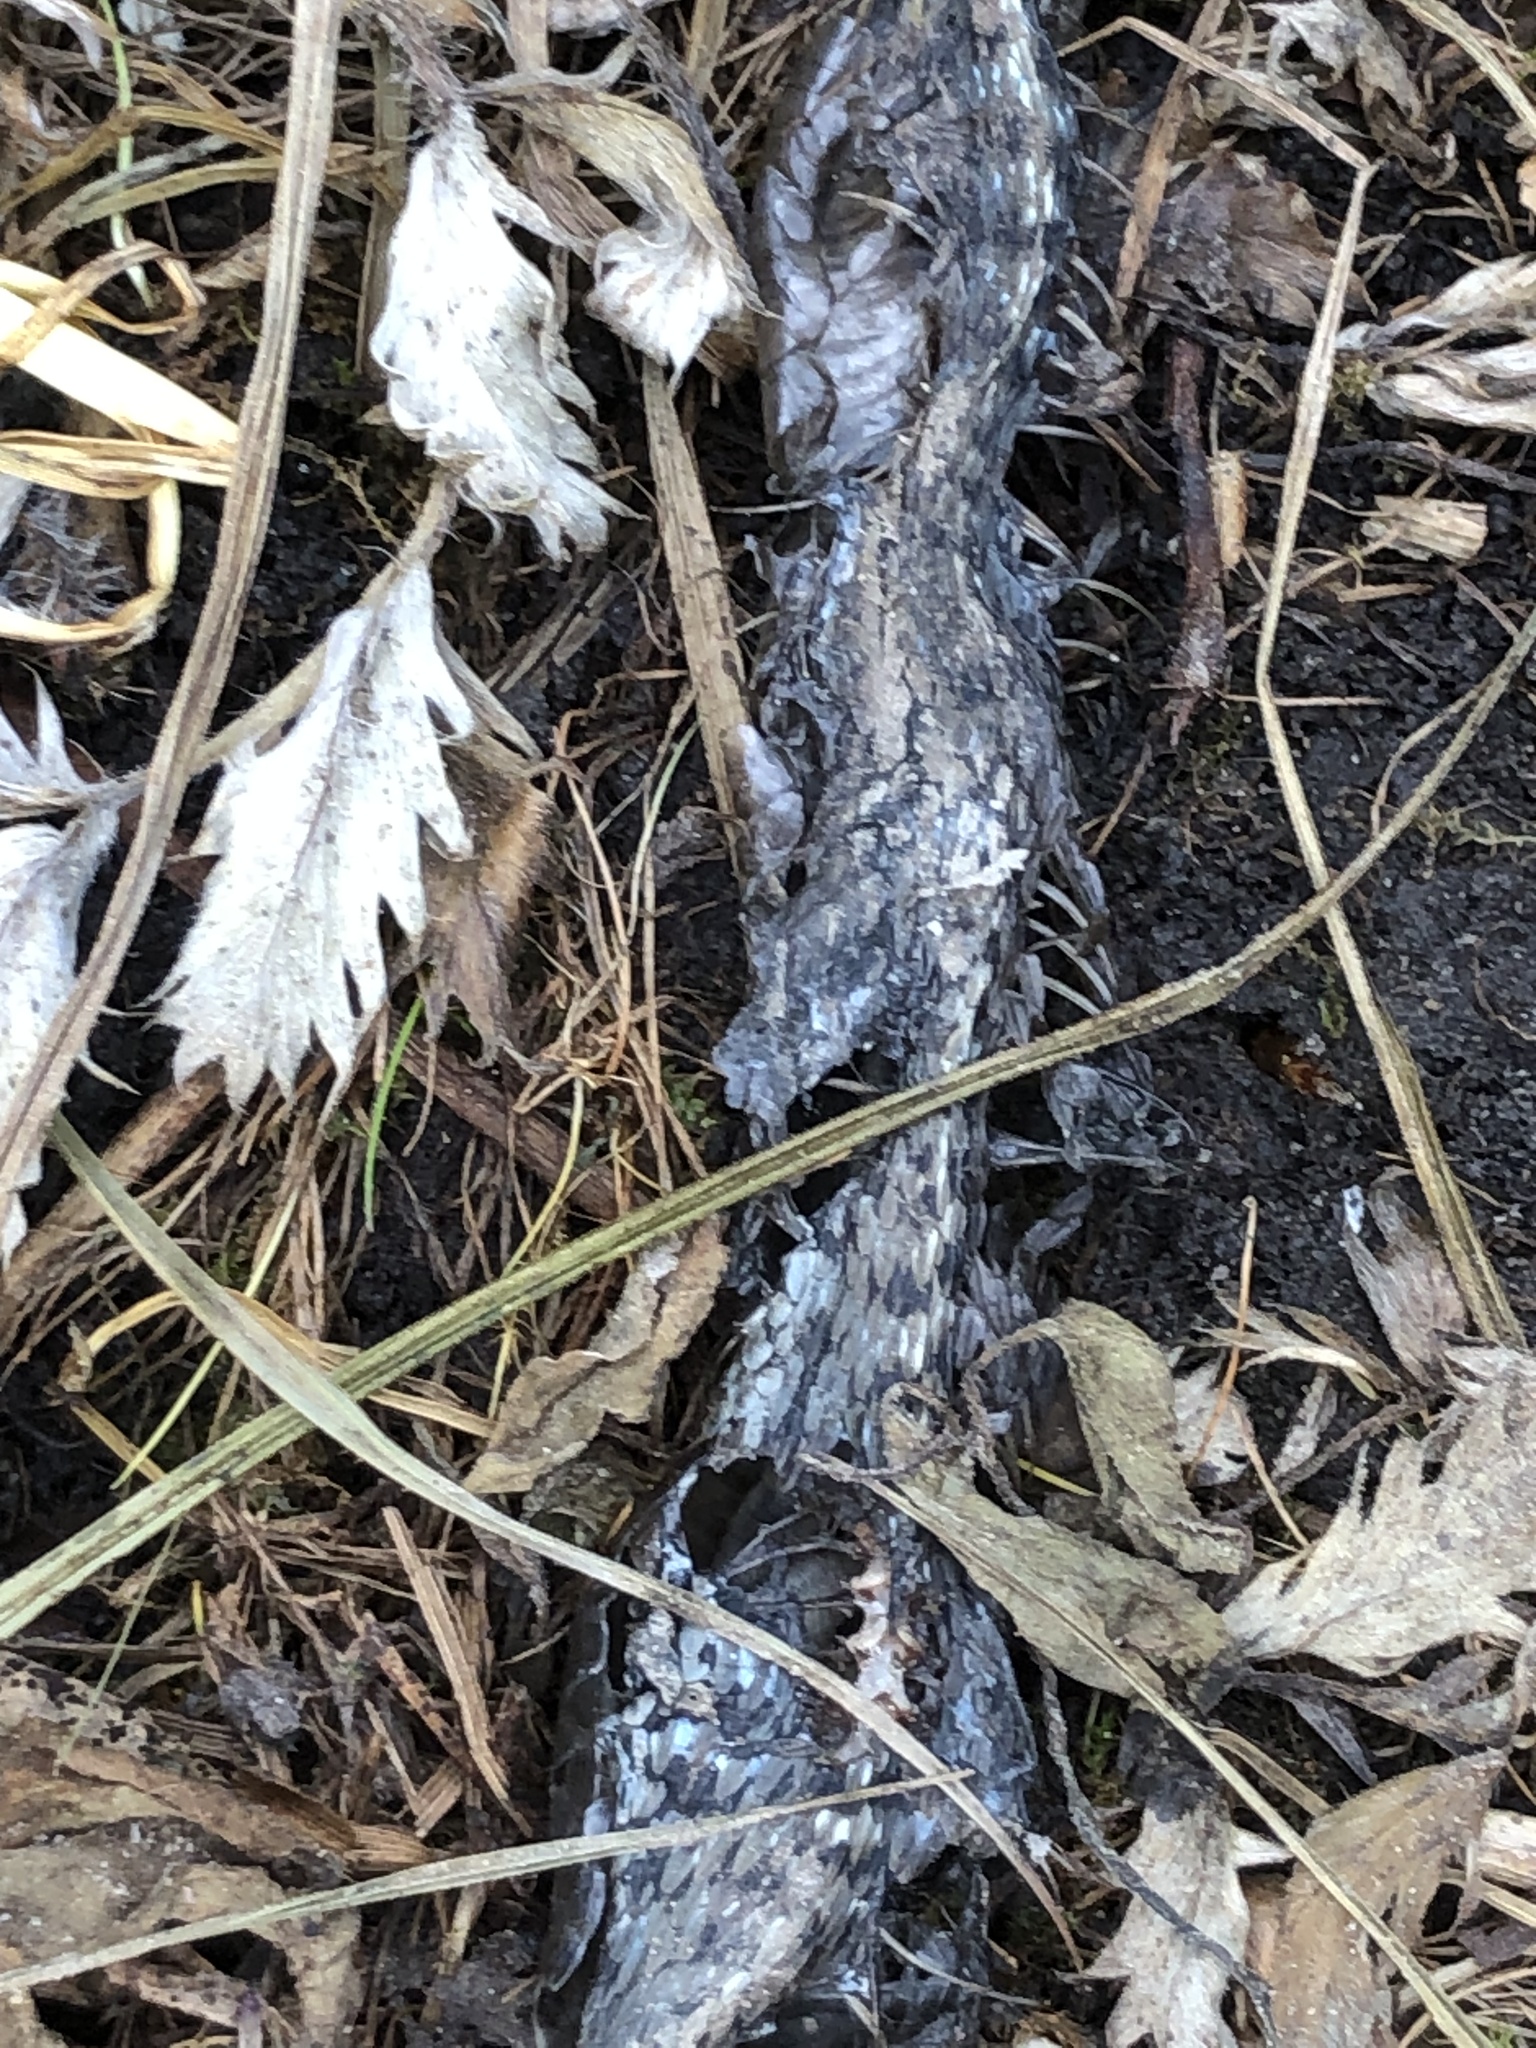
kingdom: Animalia
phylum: Chordata
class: Squamata
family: Colubridae
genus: Thamnophis
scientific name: Thamnophis elegans
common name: Western terrestrial garter snake
